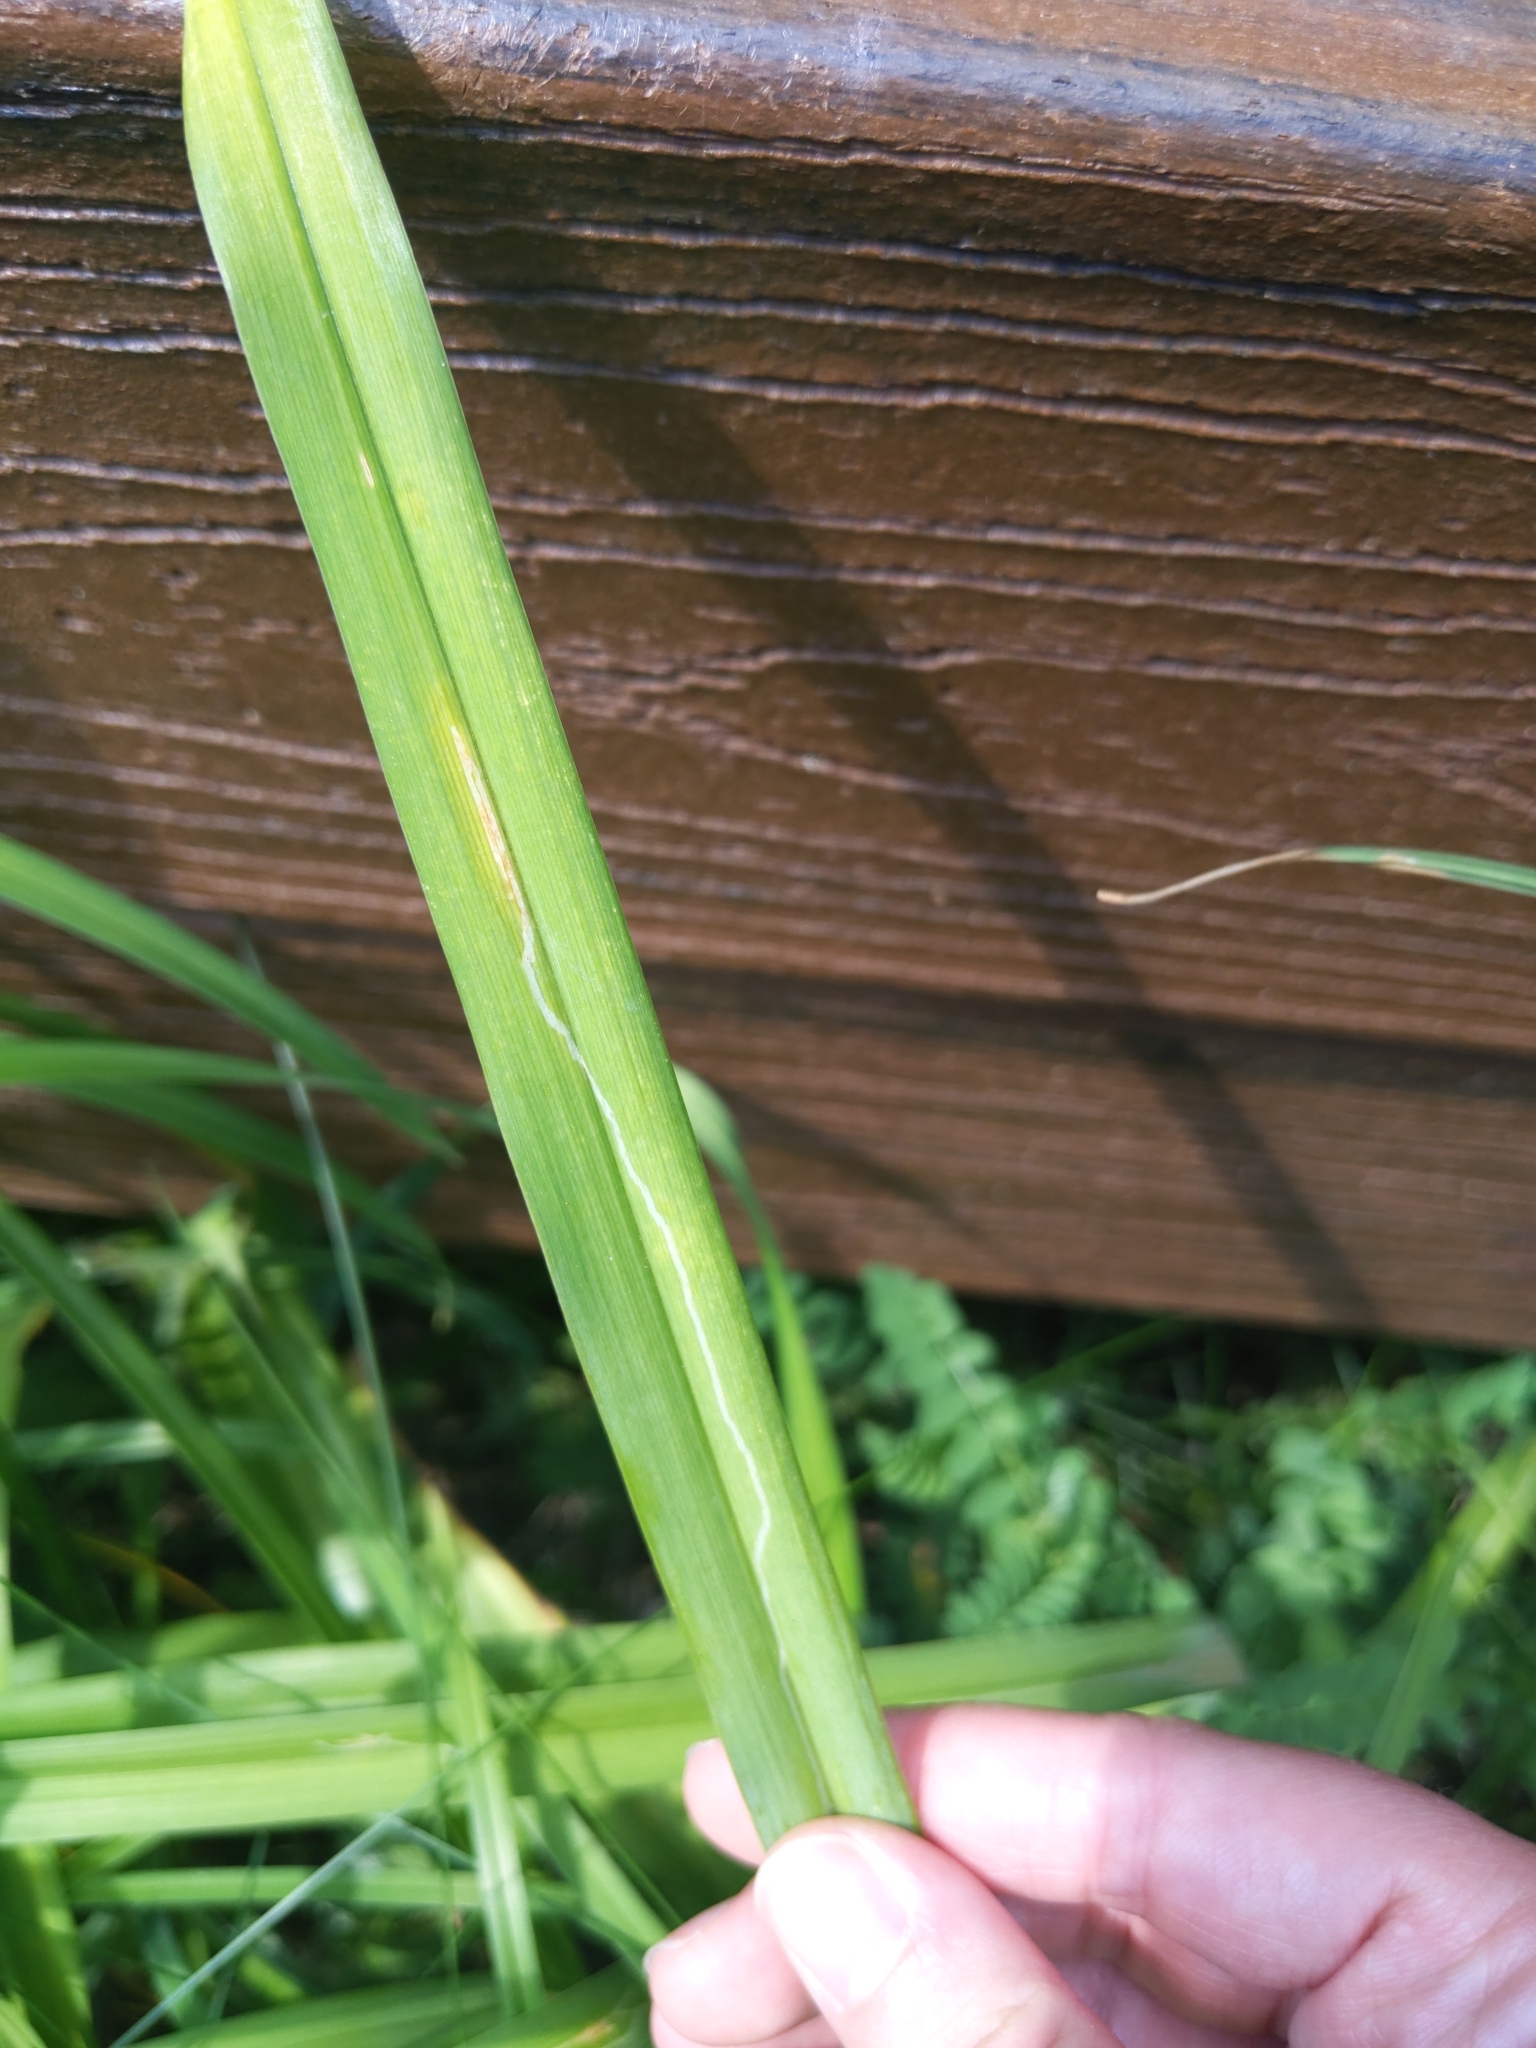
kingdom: Animalia
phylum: Arthropoda
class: Insecta
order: Diptera
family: Agromyzidae
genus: Ophiomyia
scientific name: Ophiomyia kwansonis
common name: Daylily leafminer
